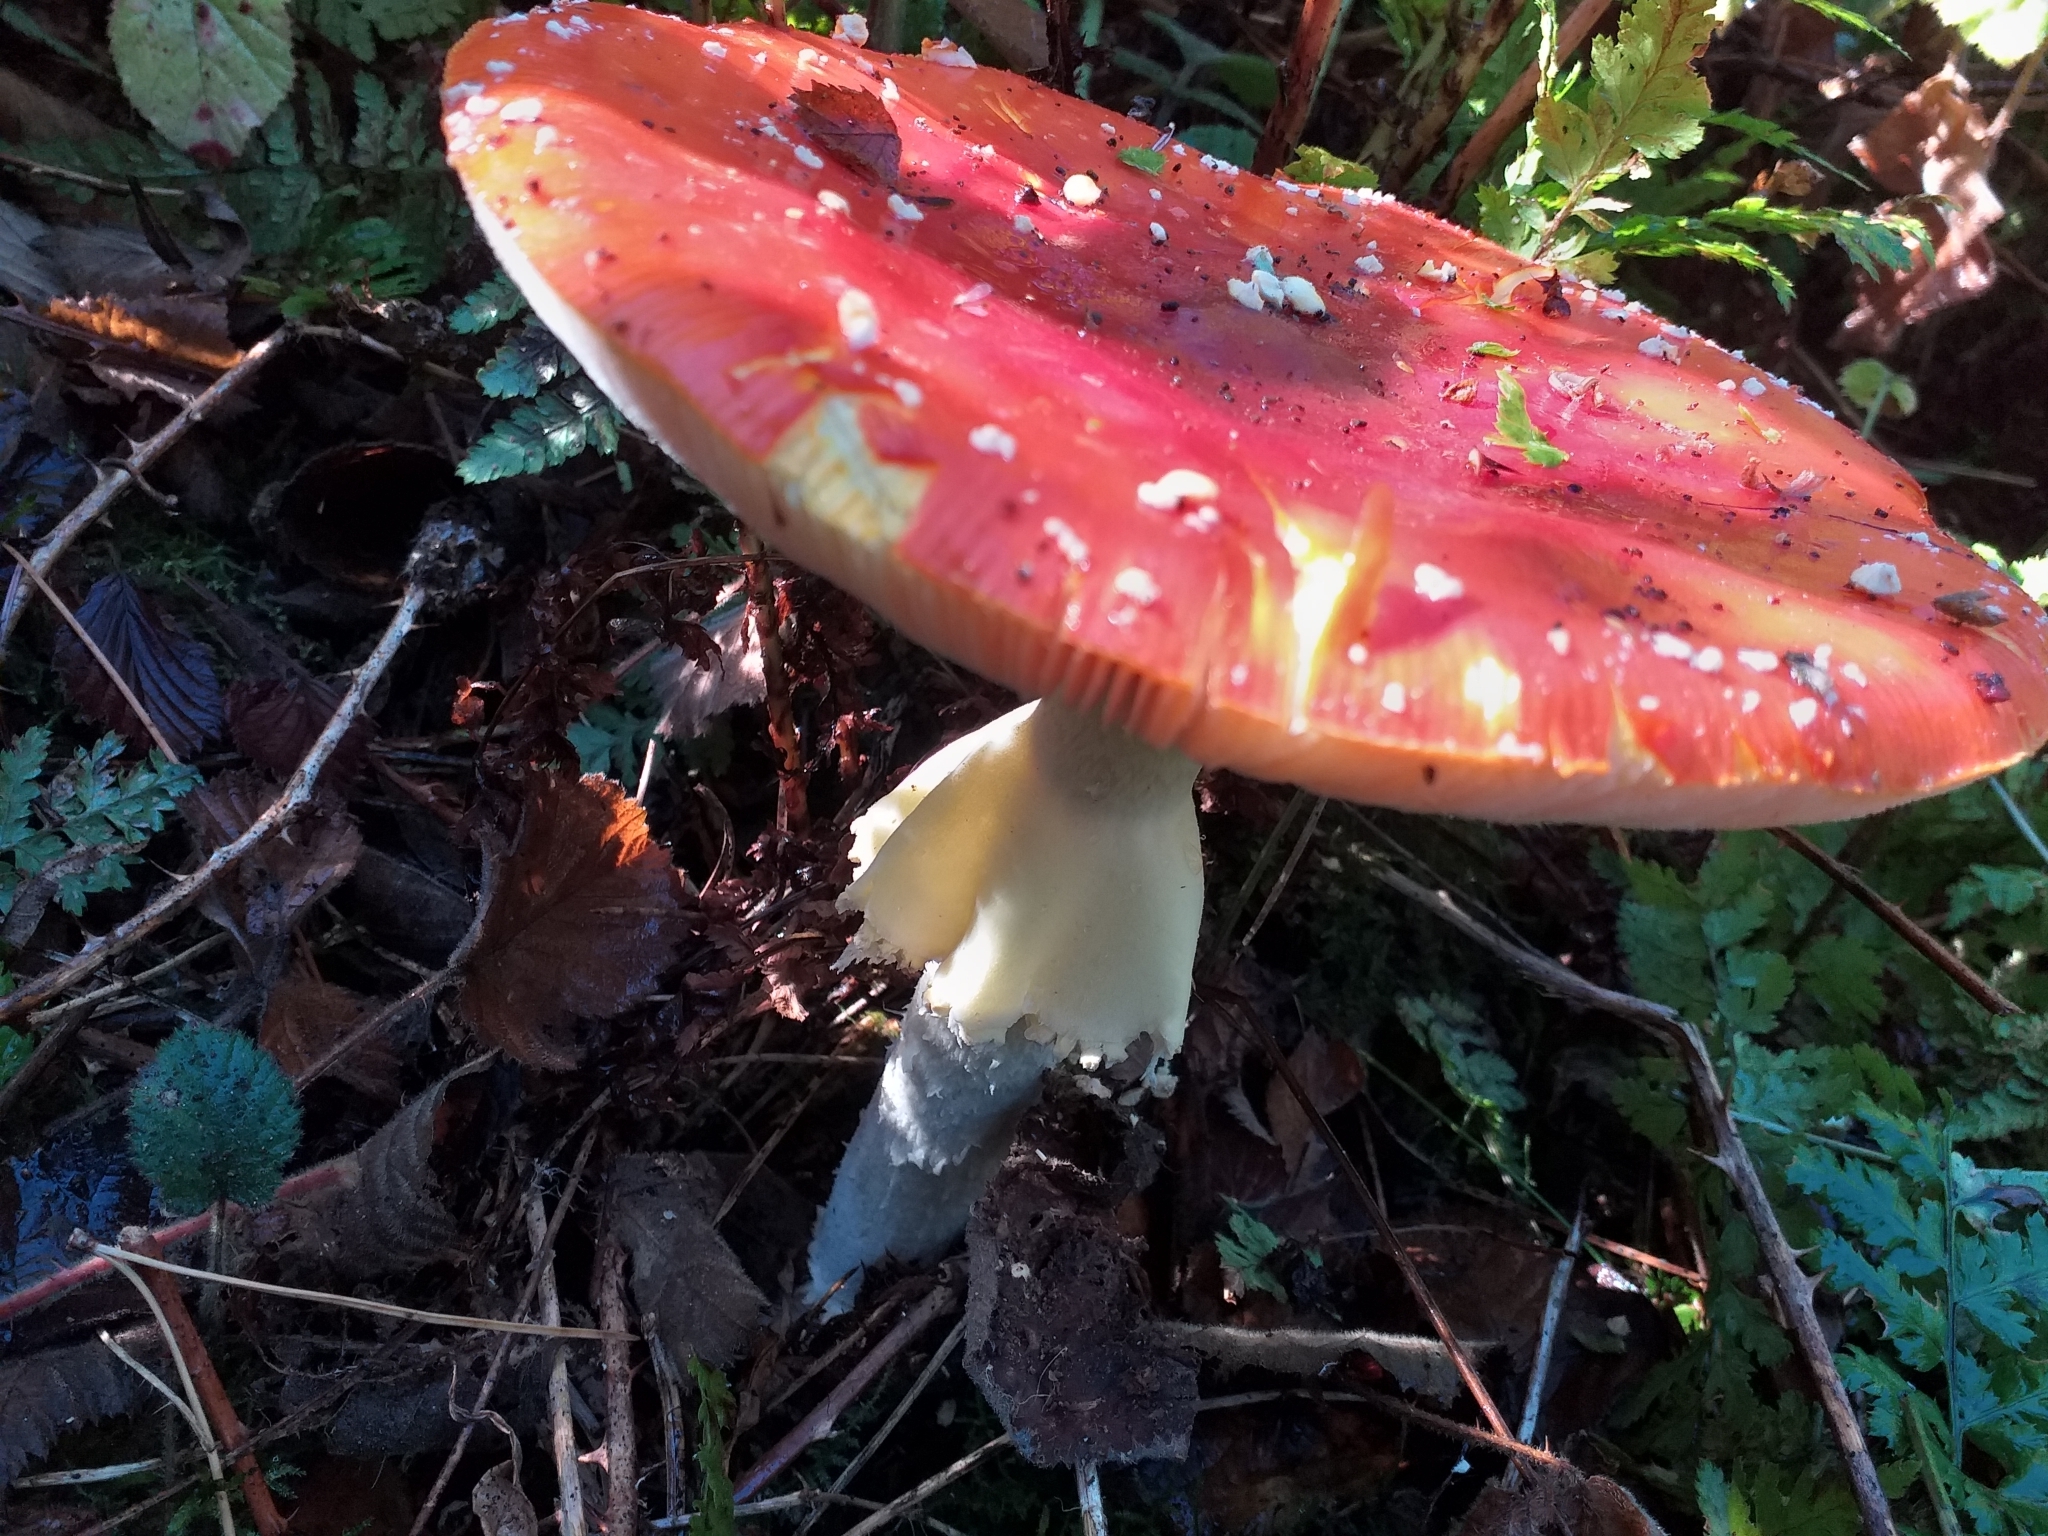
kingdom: Fungi
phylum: Basidiomycota
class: Agaricomycetes
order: Agaricales
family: Amanitaceae
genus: Amanita
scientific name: Amanita muscaria
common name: Fly agaric
